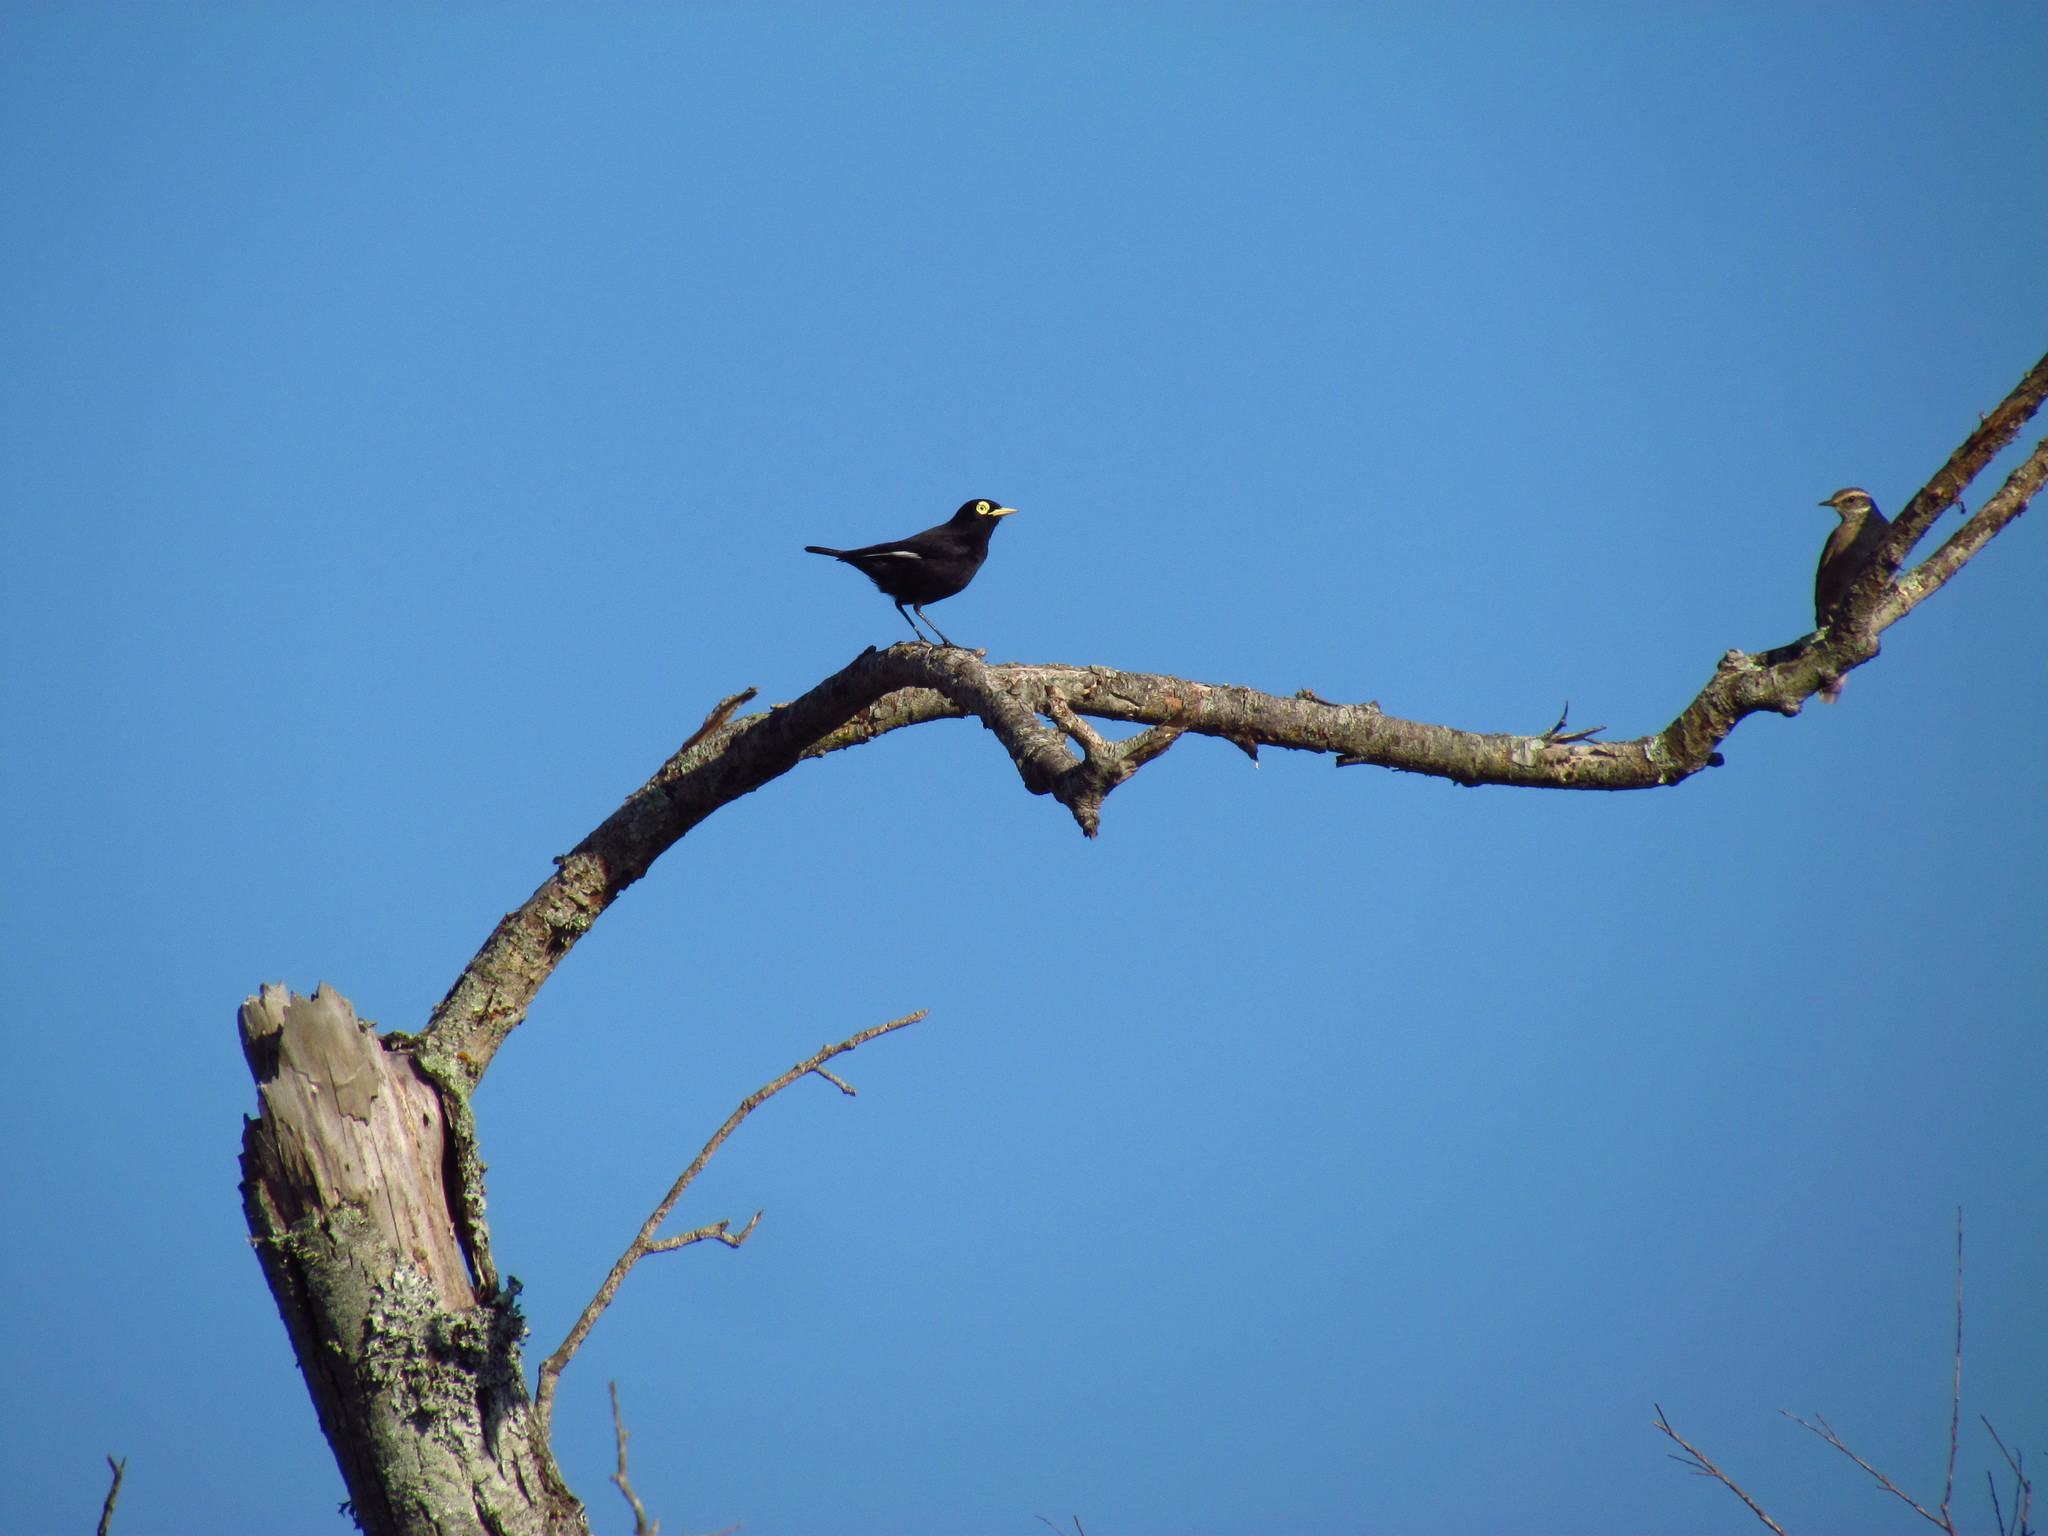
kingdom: Animalia
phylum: Chordata
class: Aves
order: Passeriformes
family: Tyrannidae
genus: Hymenops
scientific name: Hymenops perspicillatus
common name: Spectacled tyrant
